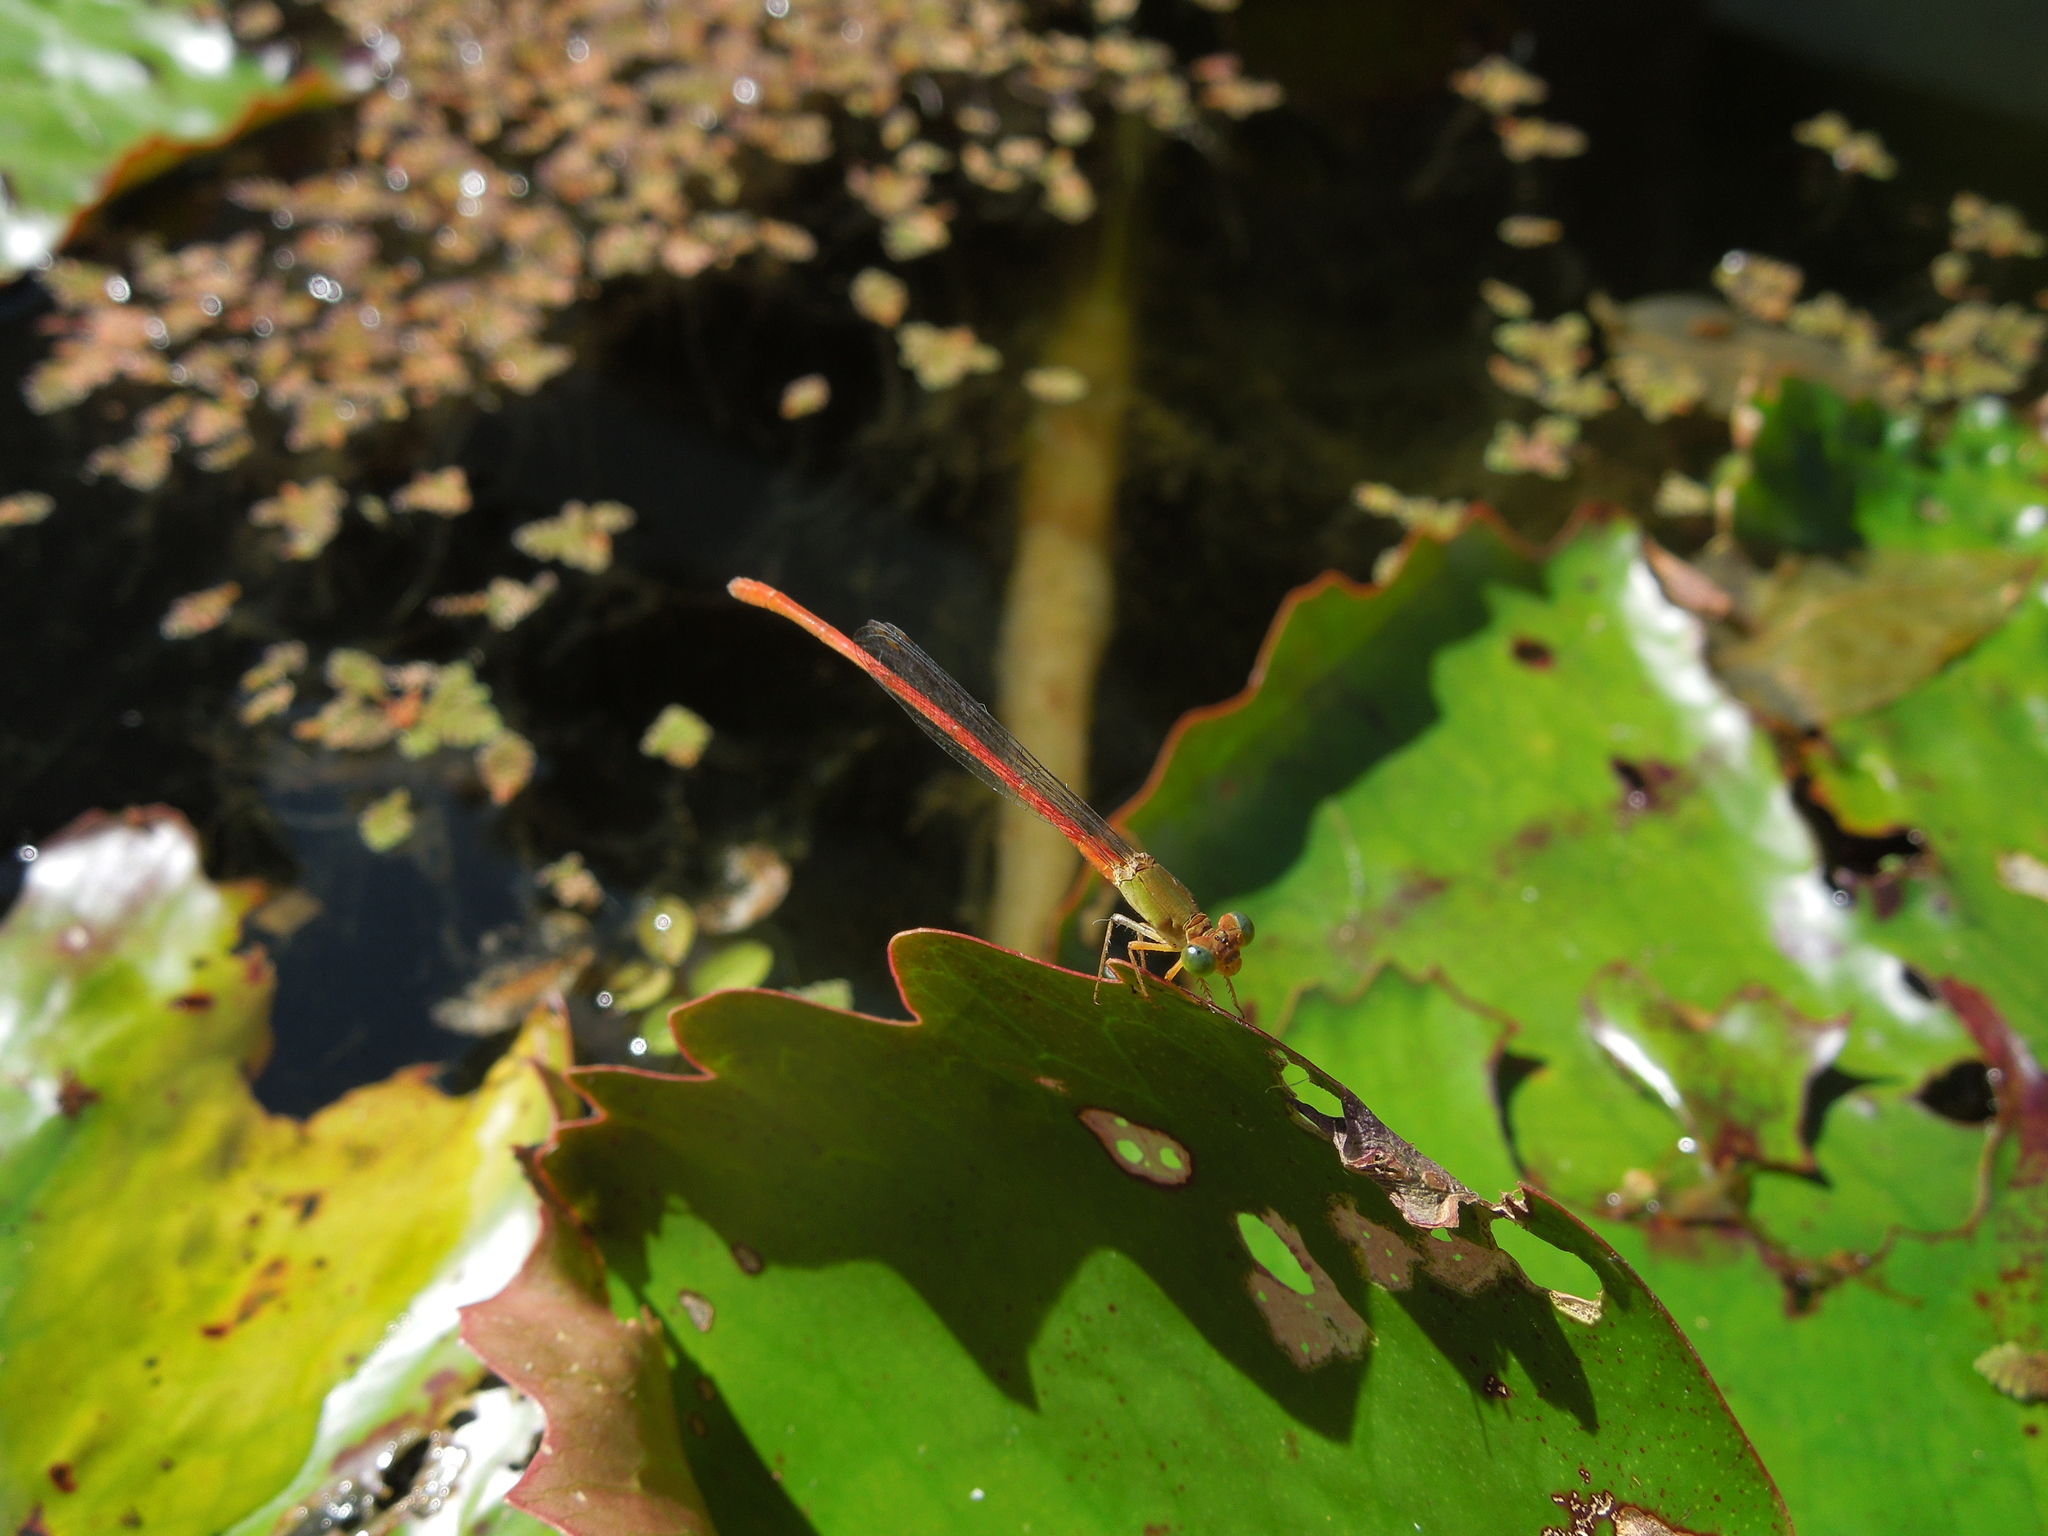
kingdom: Animalia
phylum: Arthropoda
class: Insecta
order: Odonata
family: Coenagrionidae
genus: Ceriagrion
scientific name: Ceriagrion aeruginosum
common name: Redtail
